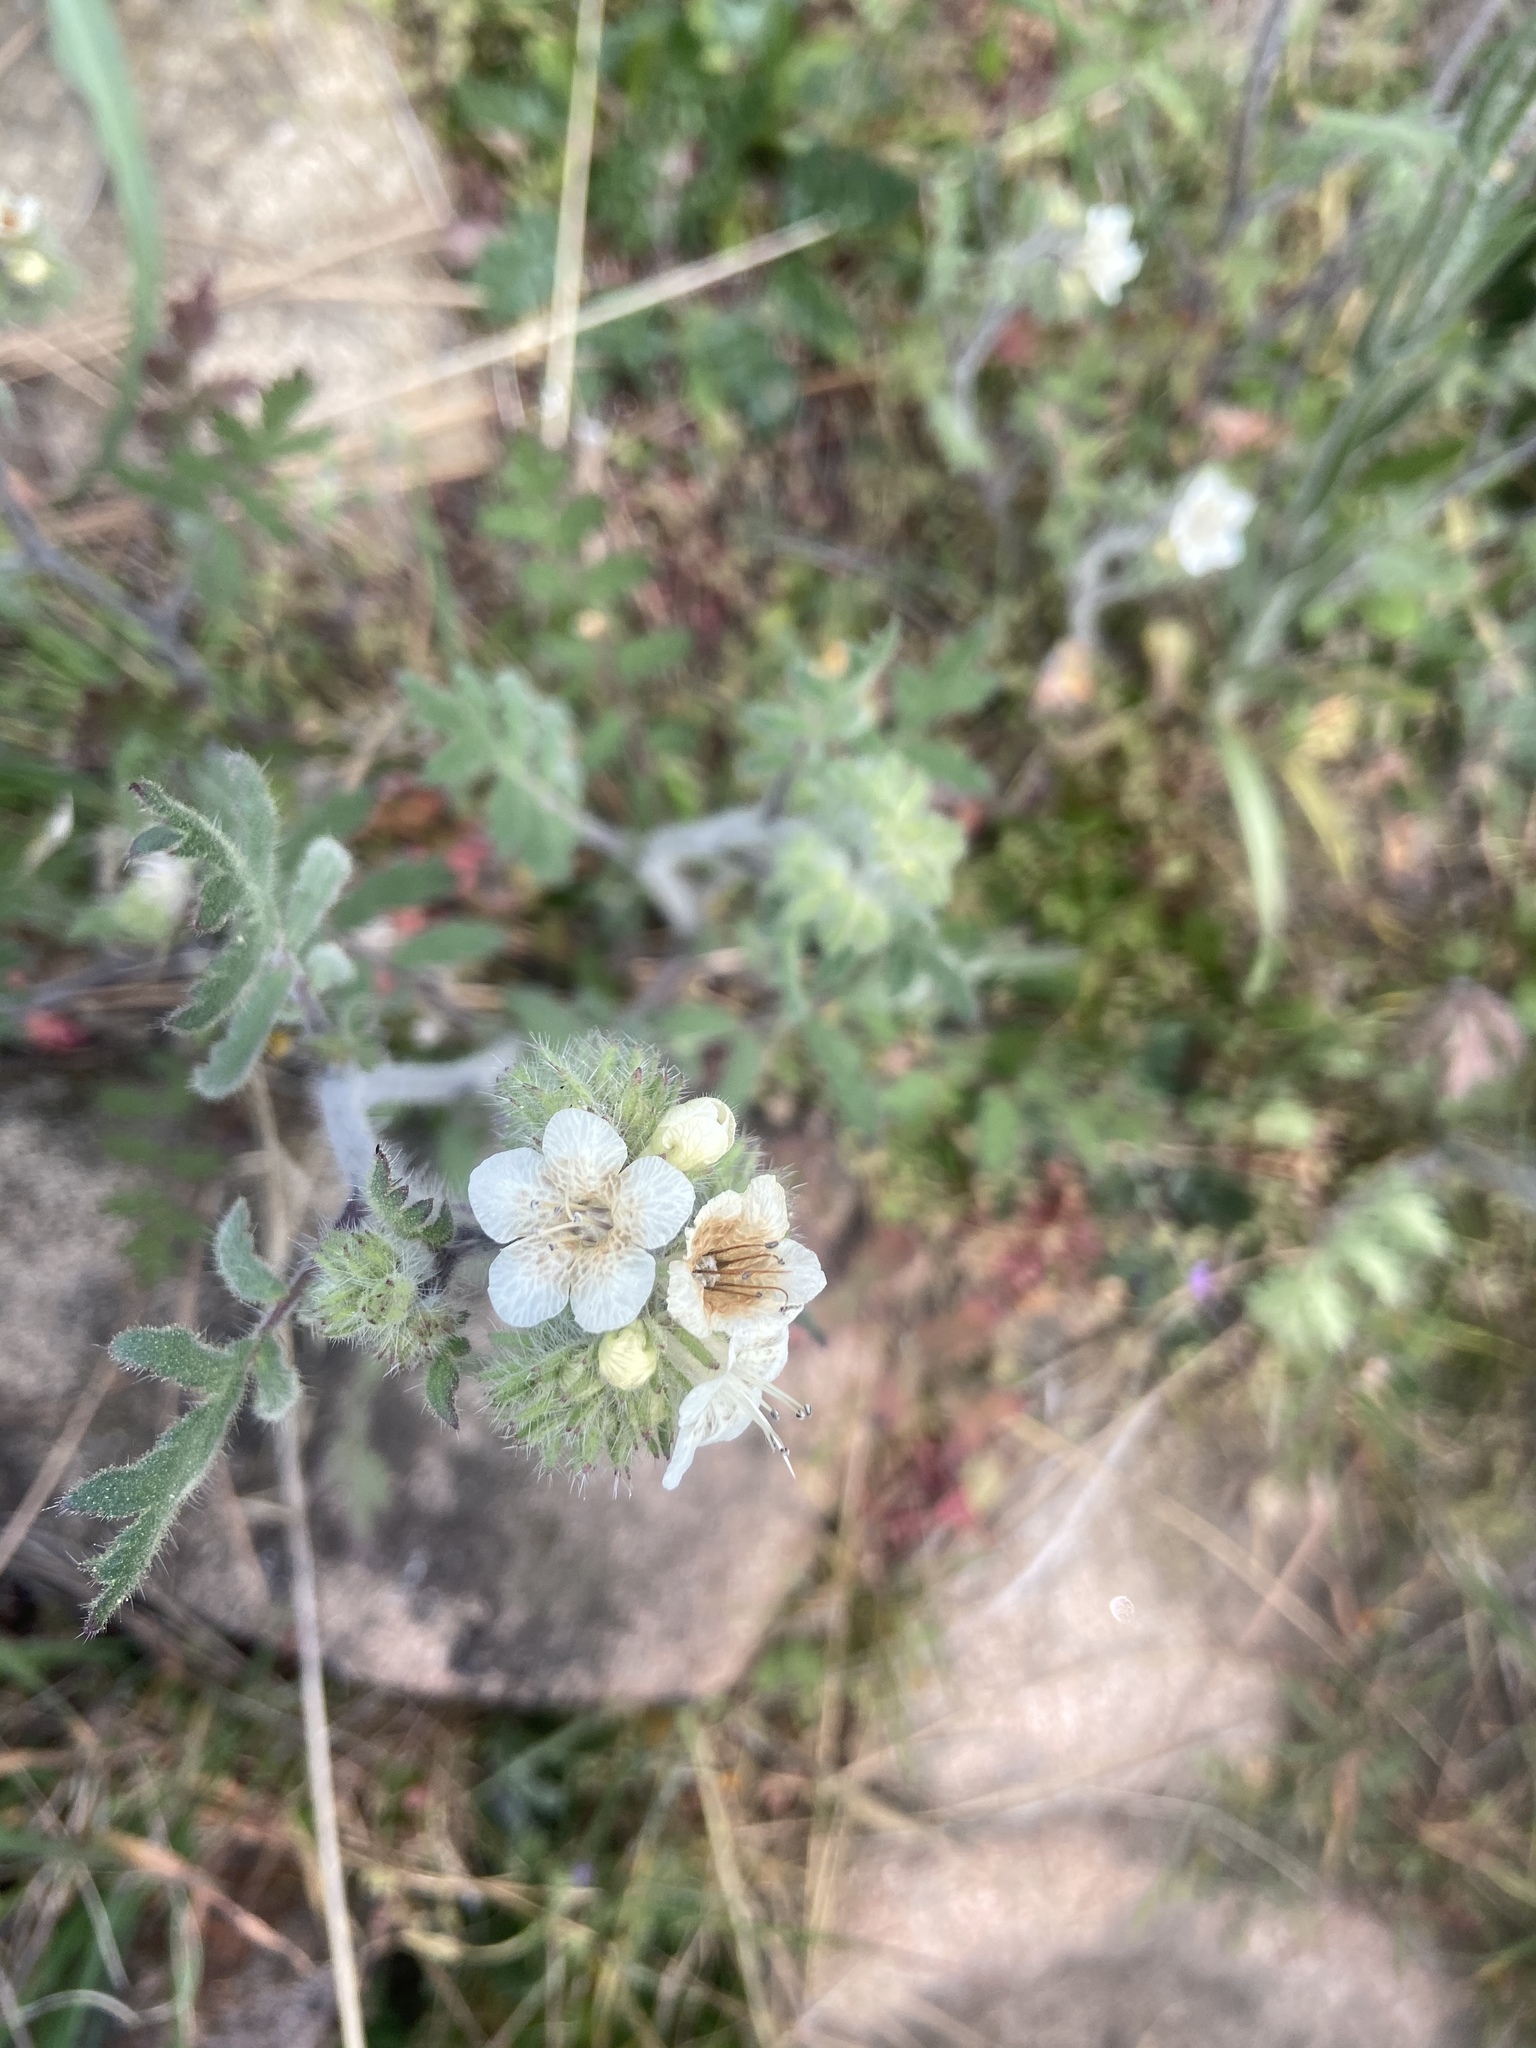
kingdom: Plantae
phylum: Tracheophyta
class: Magnoliopsida
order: Boraginales
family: Hydrophyllaceae
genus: Phacelia
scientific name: Phacelia cicutaria
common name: Caterpillar phacelia
